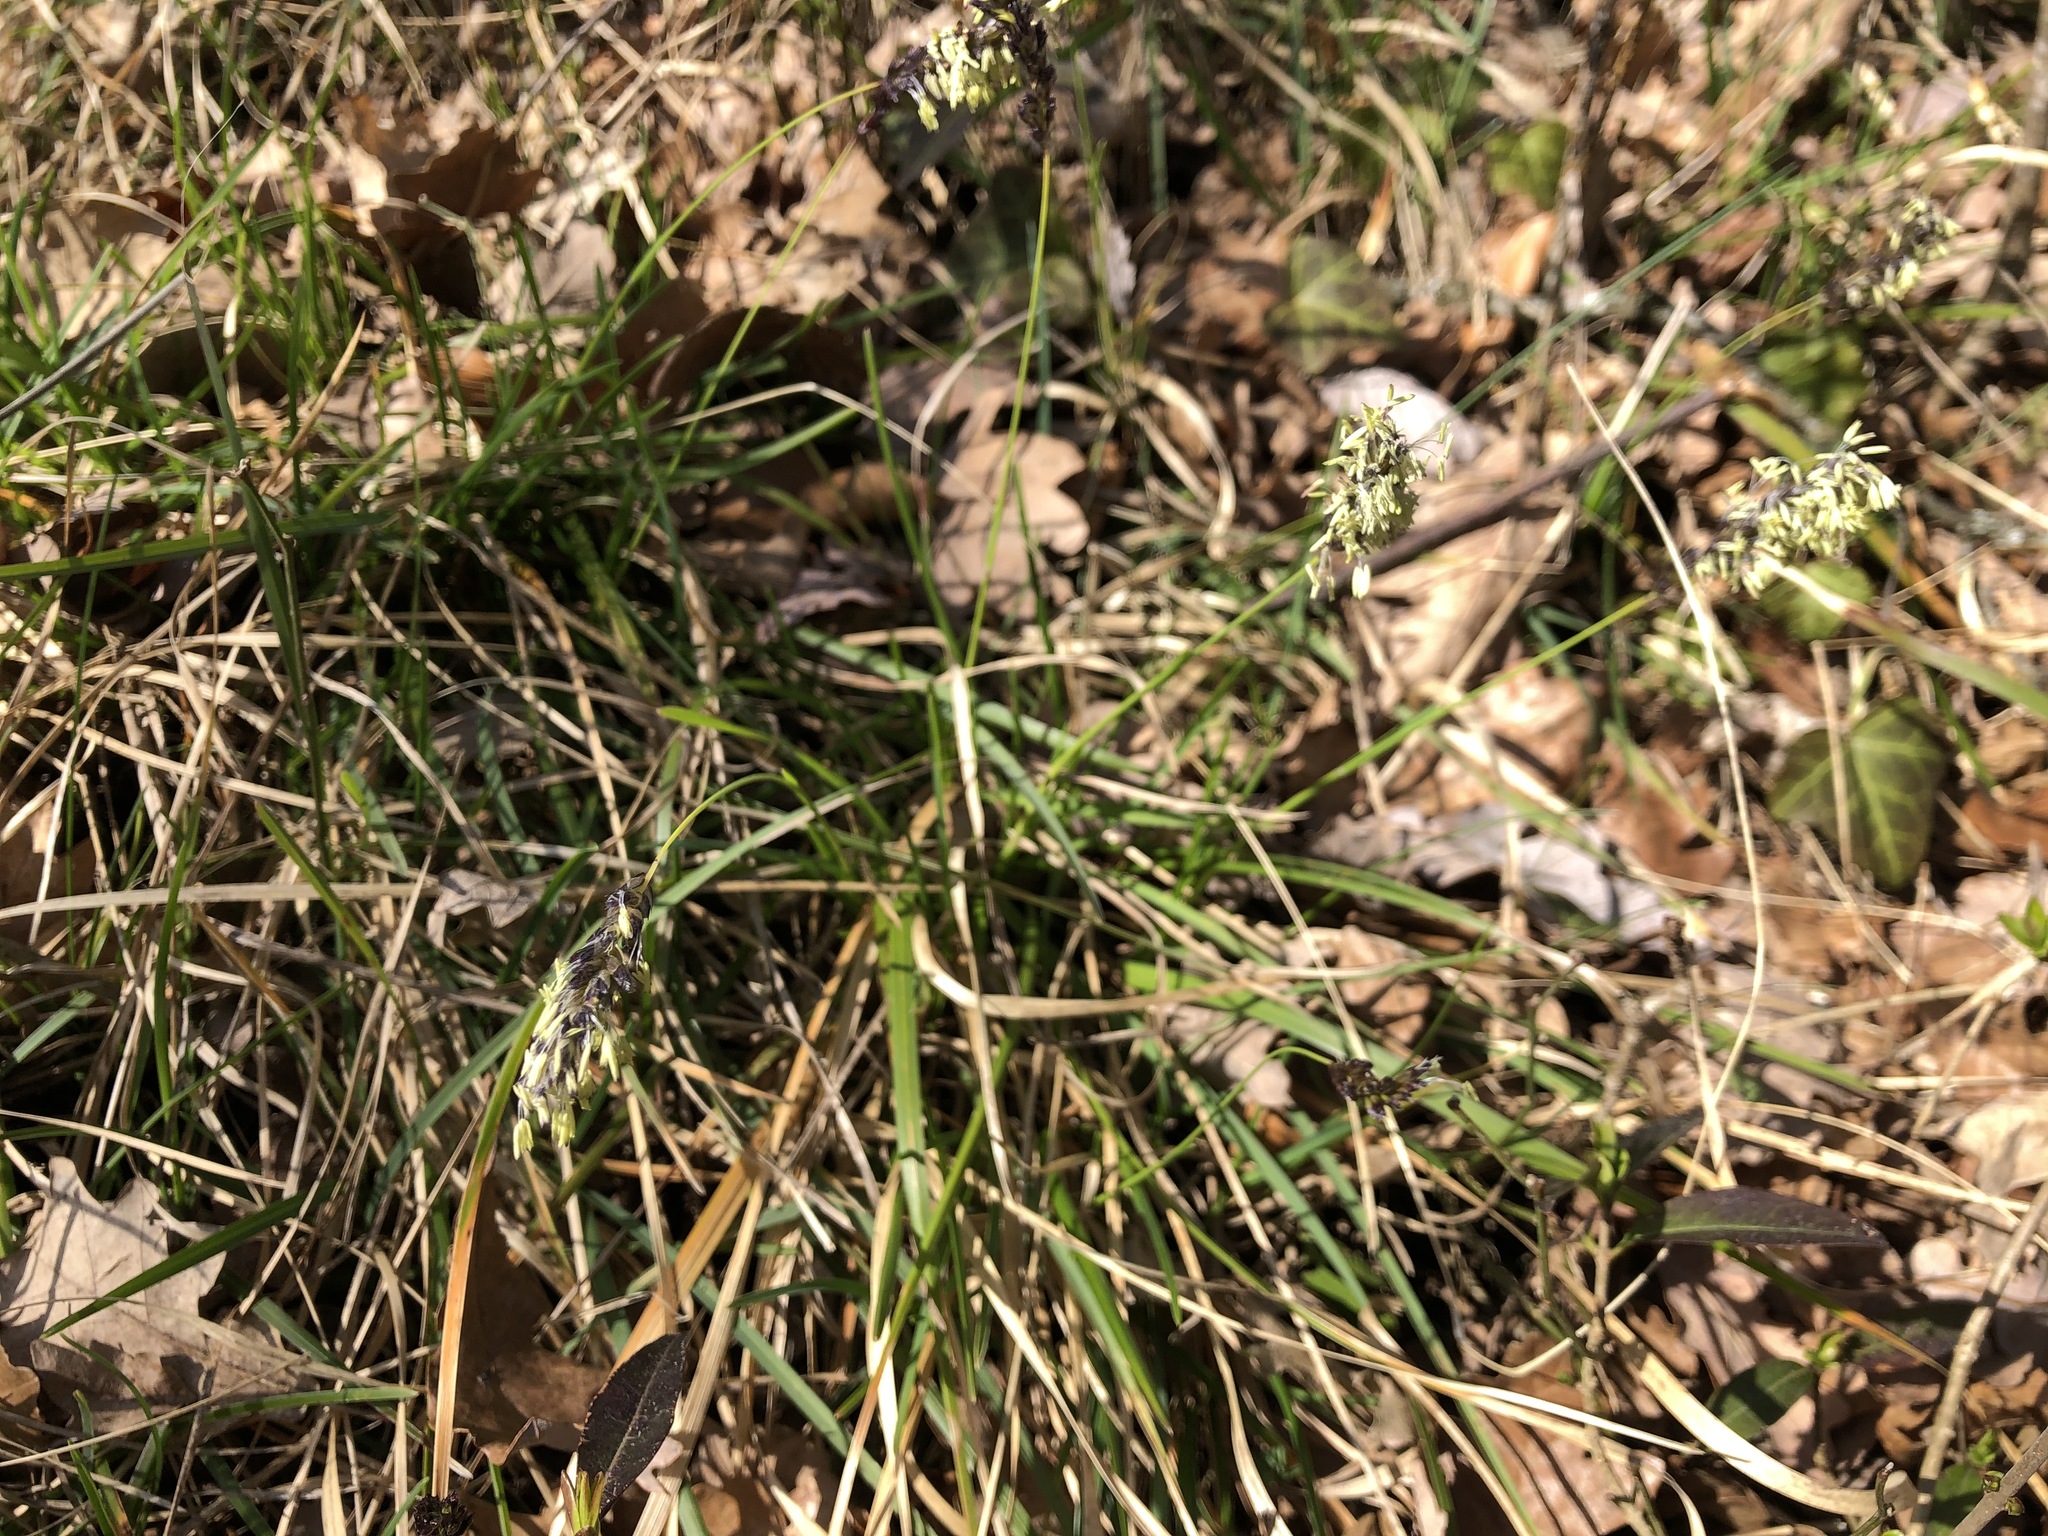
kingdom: Plantae
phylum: Tracheophyta
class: Liliopsida
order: Poales
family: Poaceae
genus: Sesleria
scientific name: Sesleria caerulea
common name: Blue moor-grass
